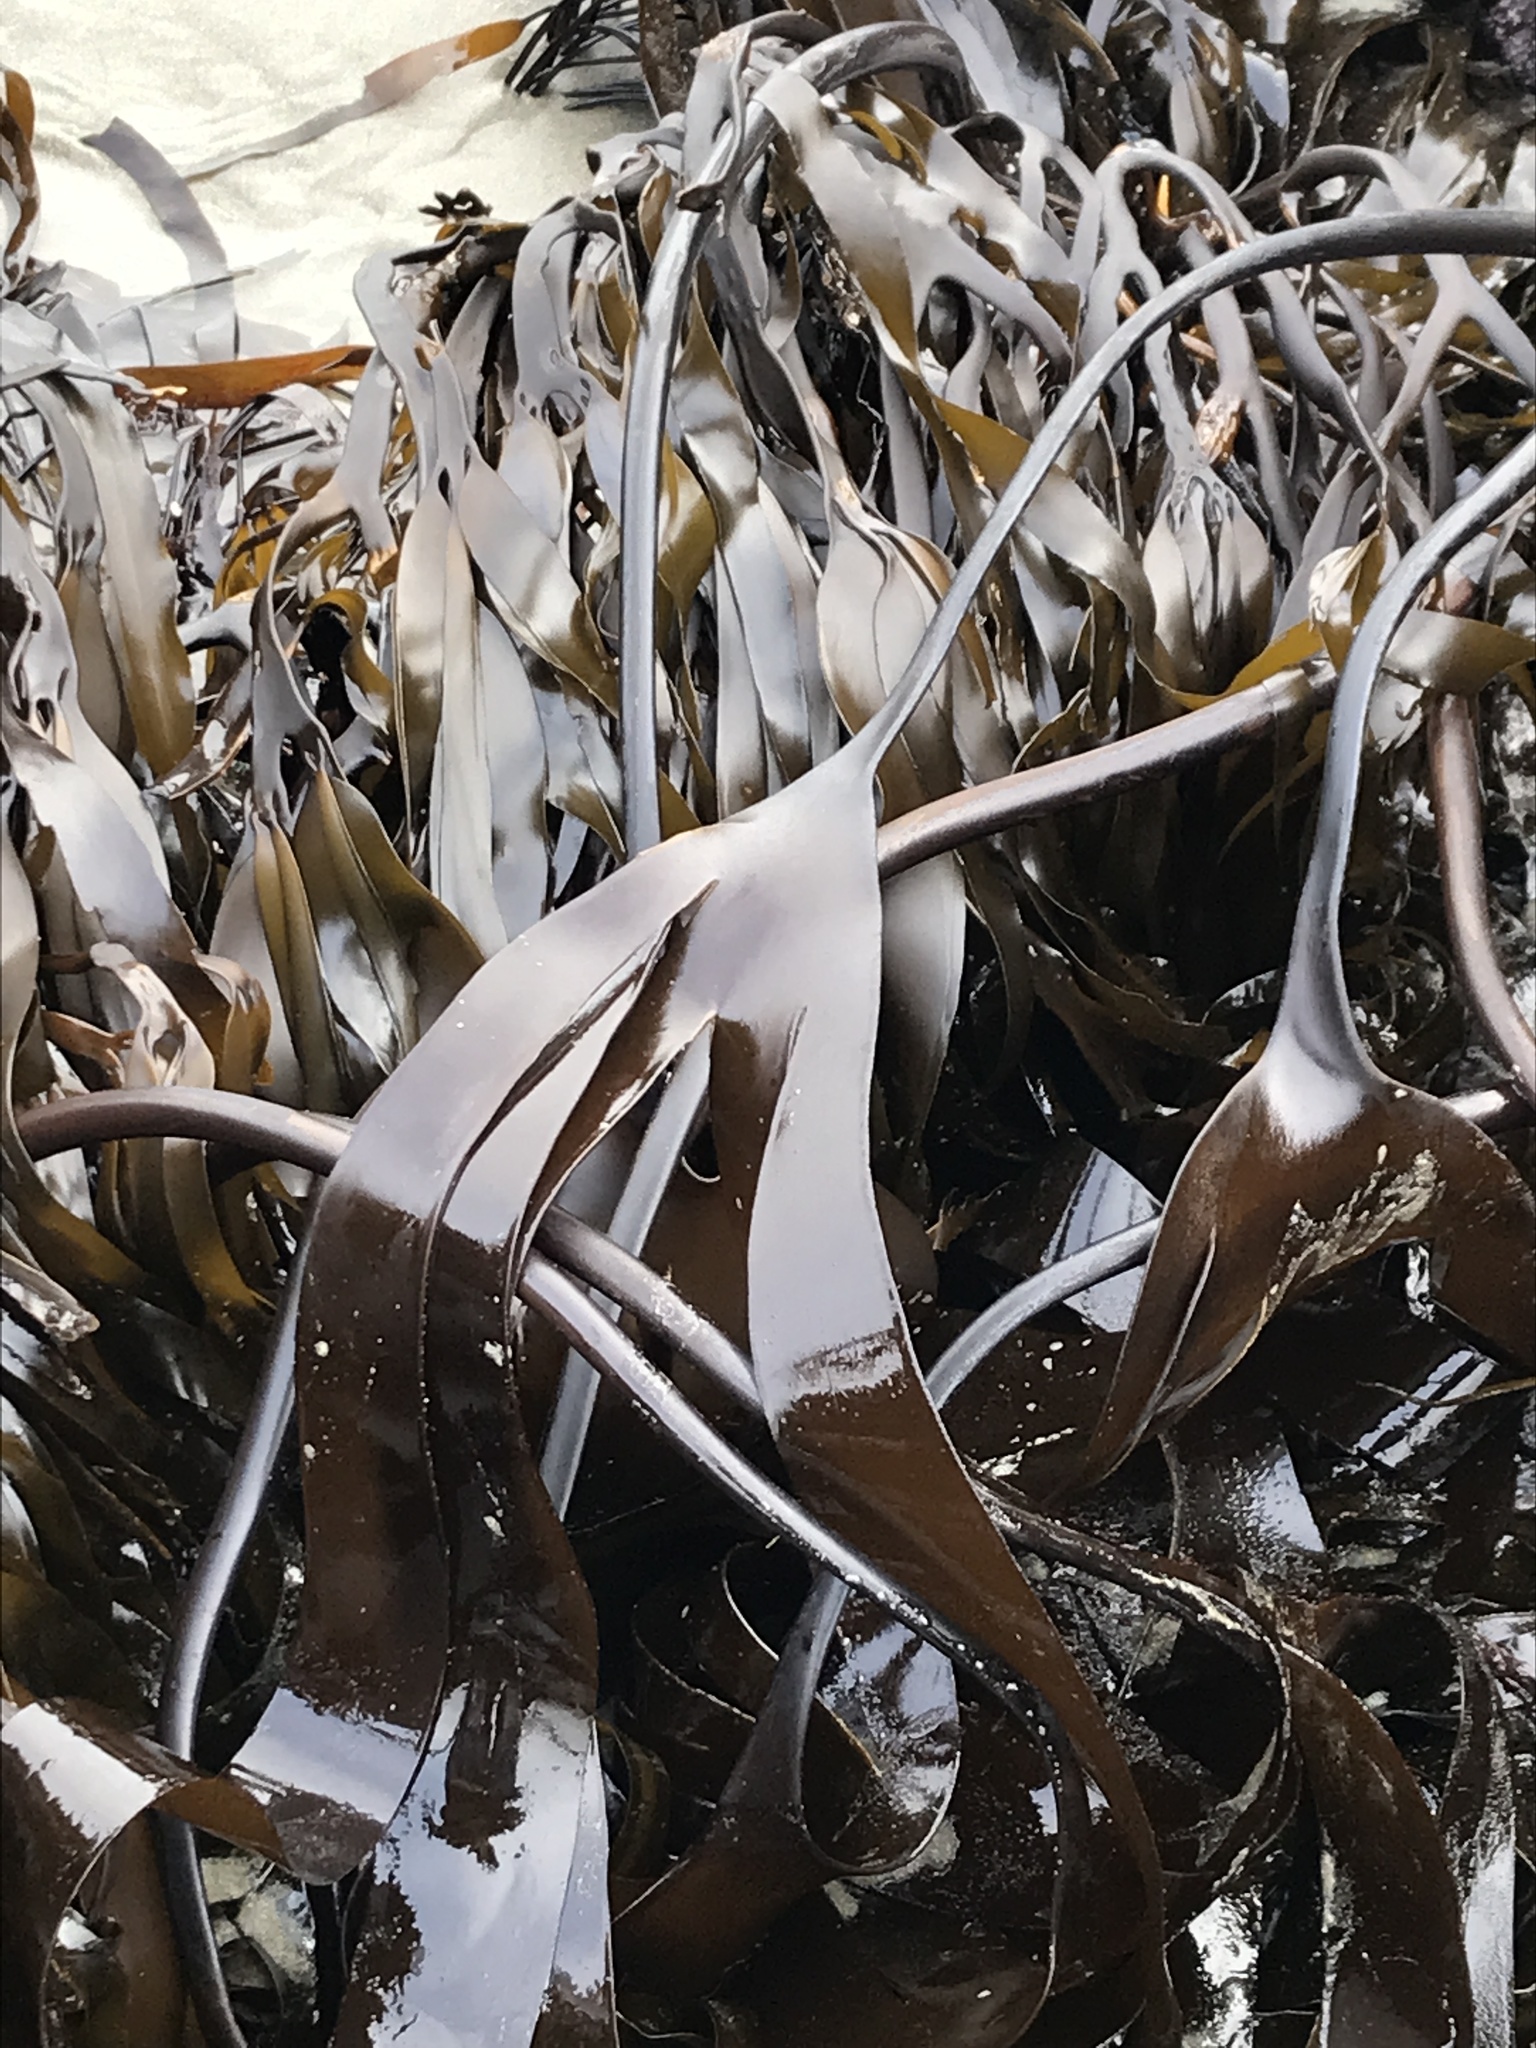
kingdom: Chromista
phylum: Ochrophyta
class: Phaeophyceae
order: Laminariales
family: Laminariaceae
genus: Laminaria
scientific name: Laminaria setchellii
